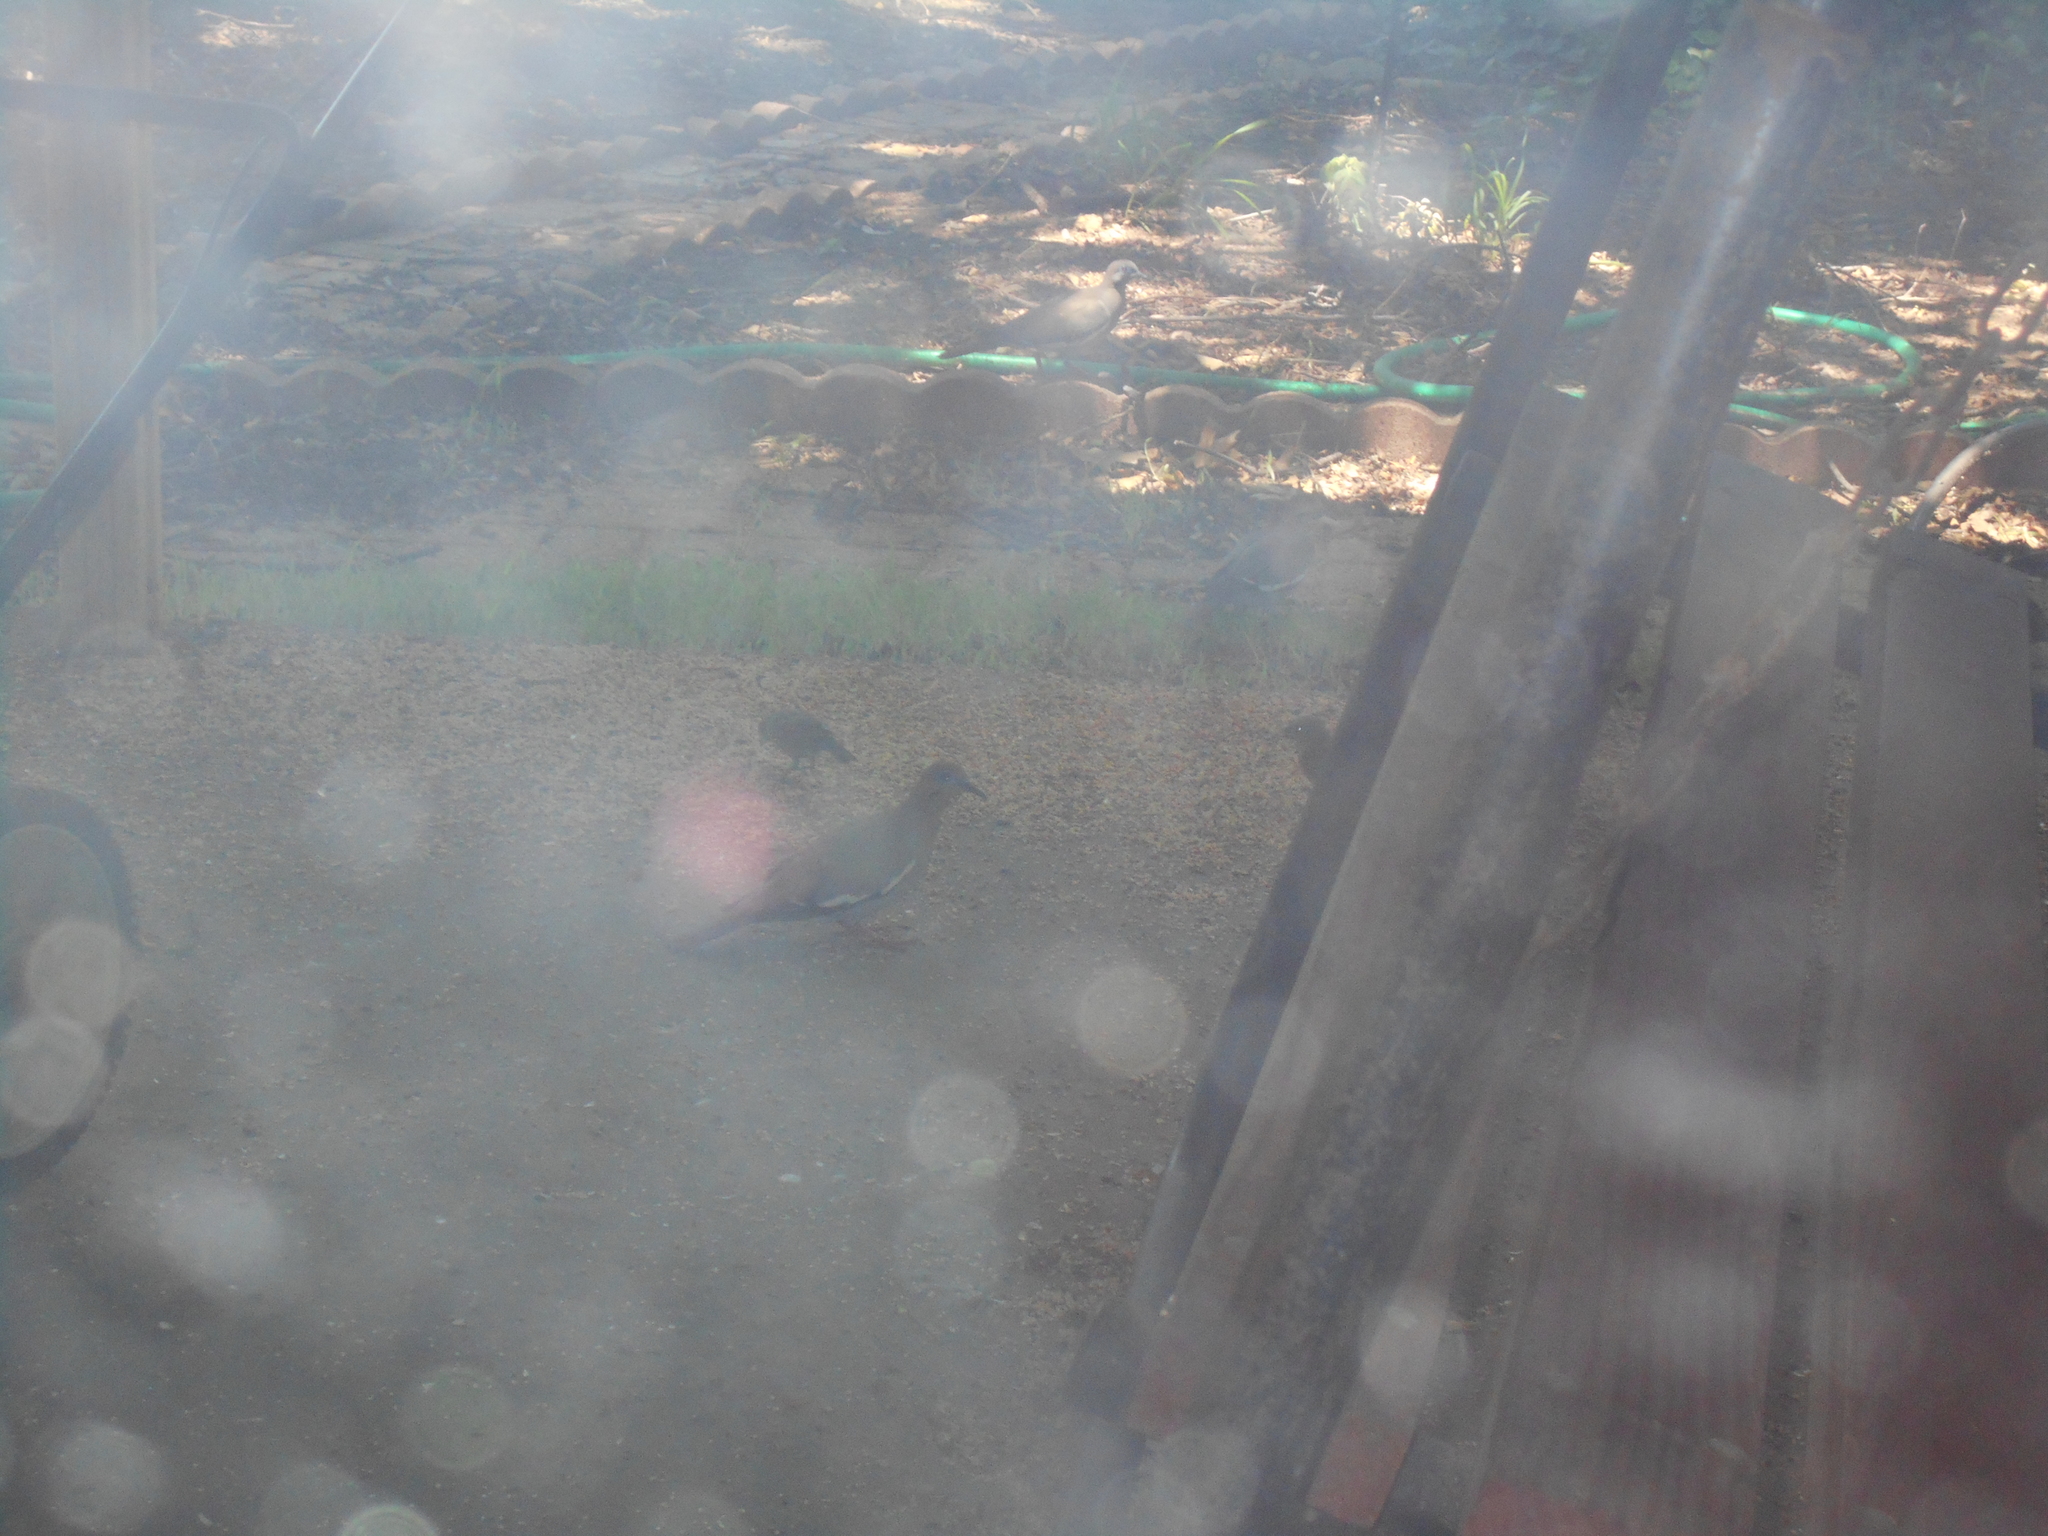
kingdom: Animalia
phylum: Chordata
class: Aves
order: Columbiformes
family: Columbidae
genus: Zenaida
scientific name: Zenaida asiatica
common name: White-winged dove
